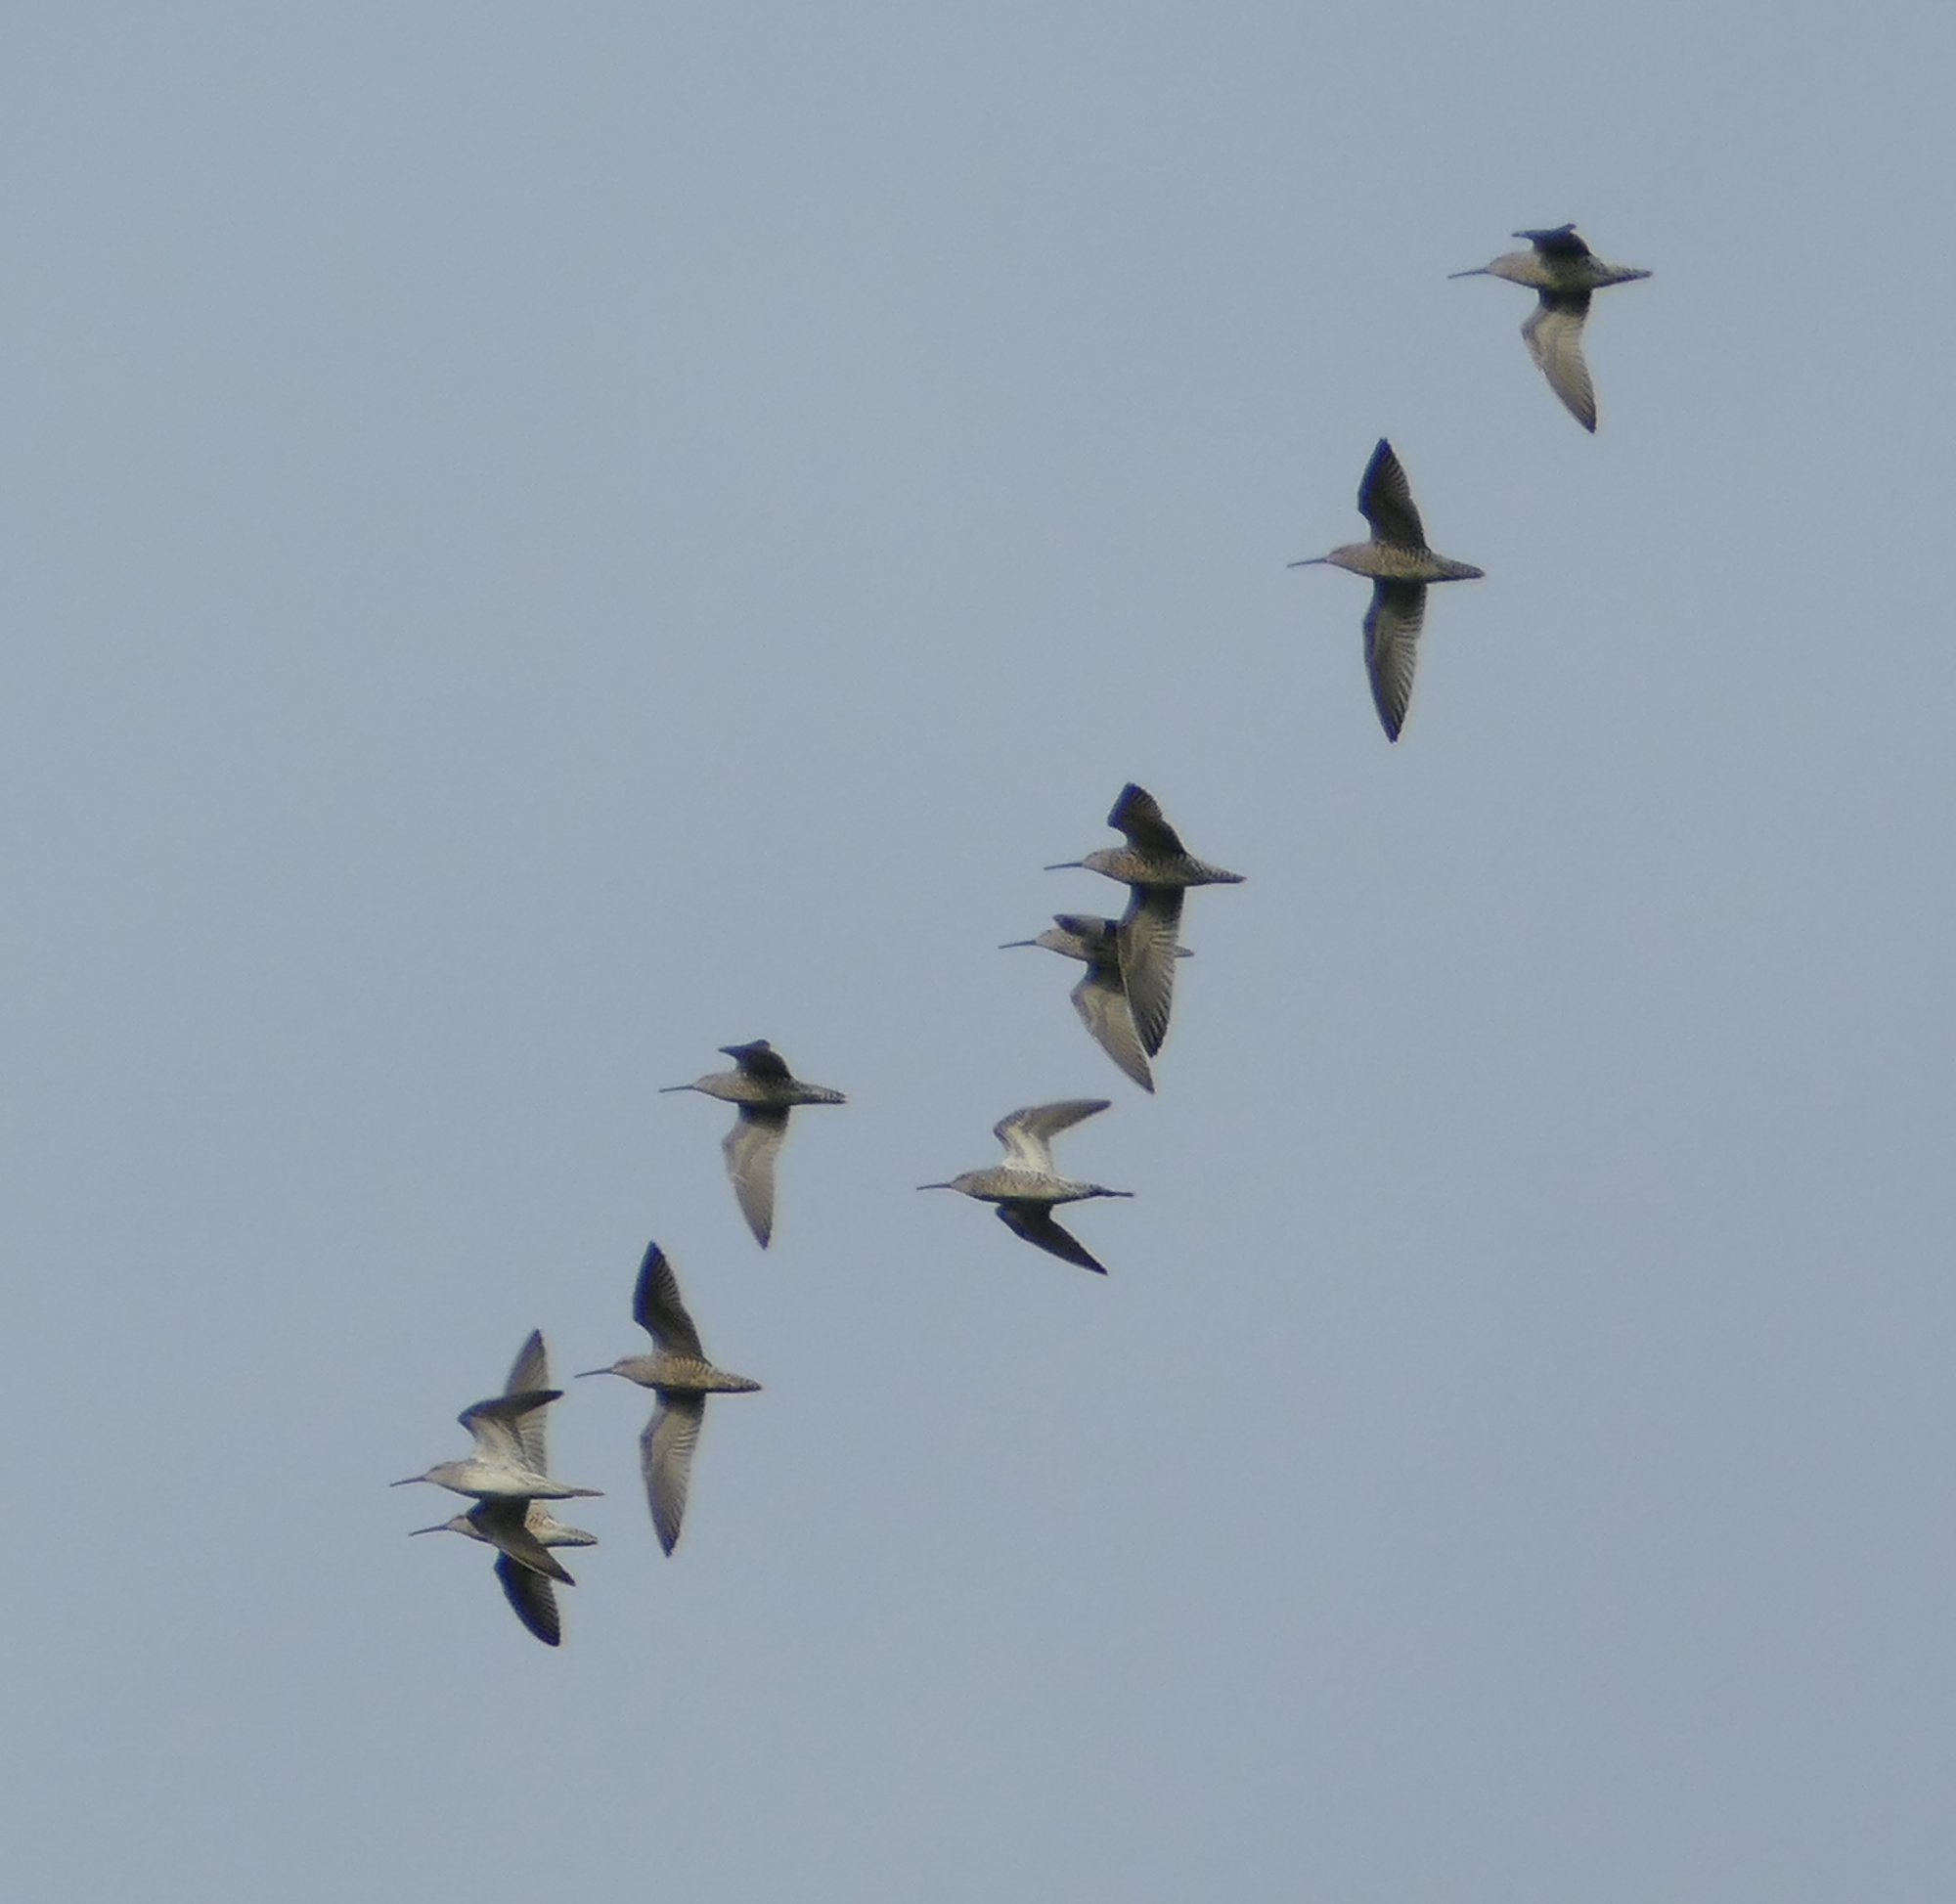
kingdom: Animalia
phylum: Chordata
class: Aves
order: Charadriiformes
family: Scolopacidae
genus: Calidris
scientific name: Calidris himantopus
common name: Stilt sandpiper
